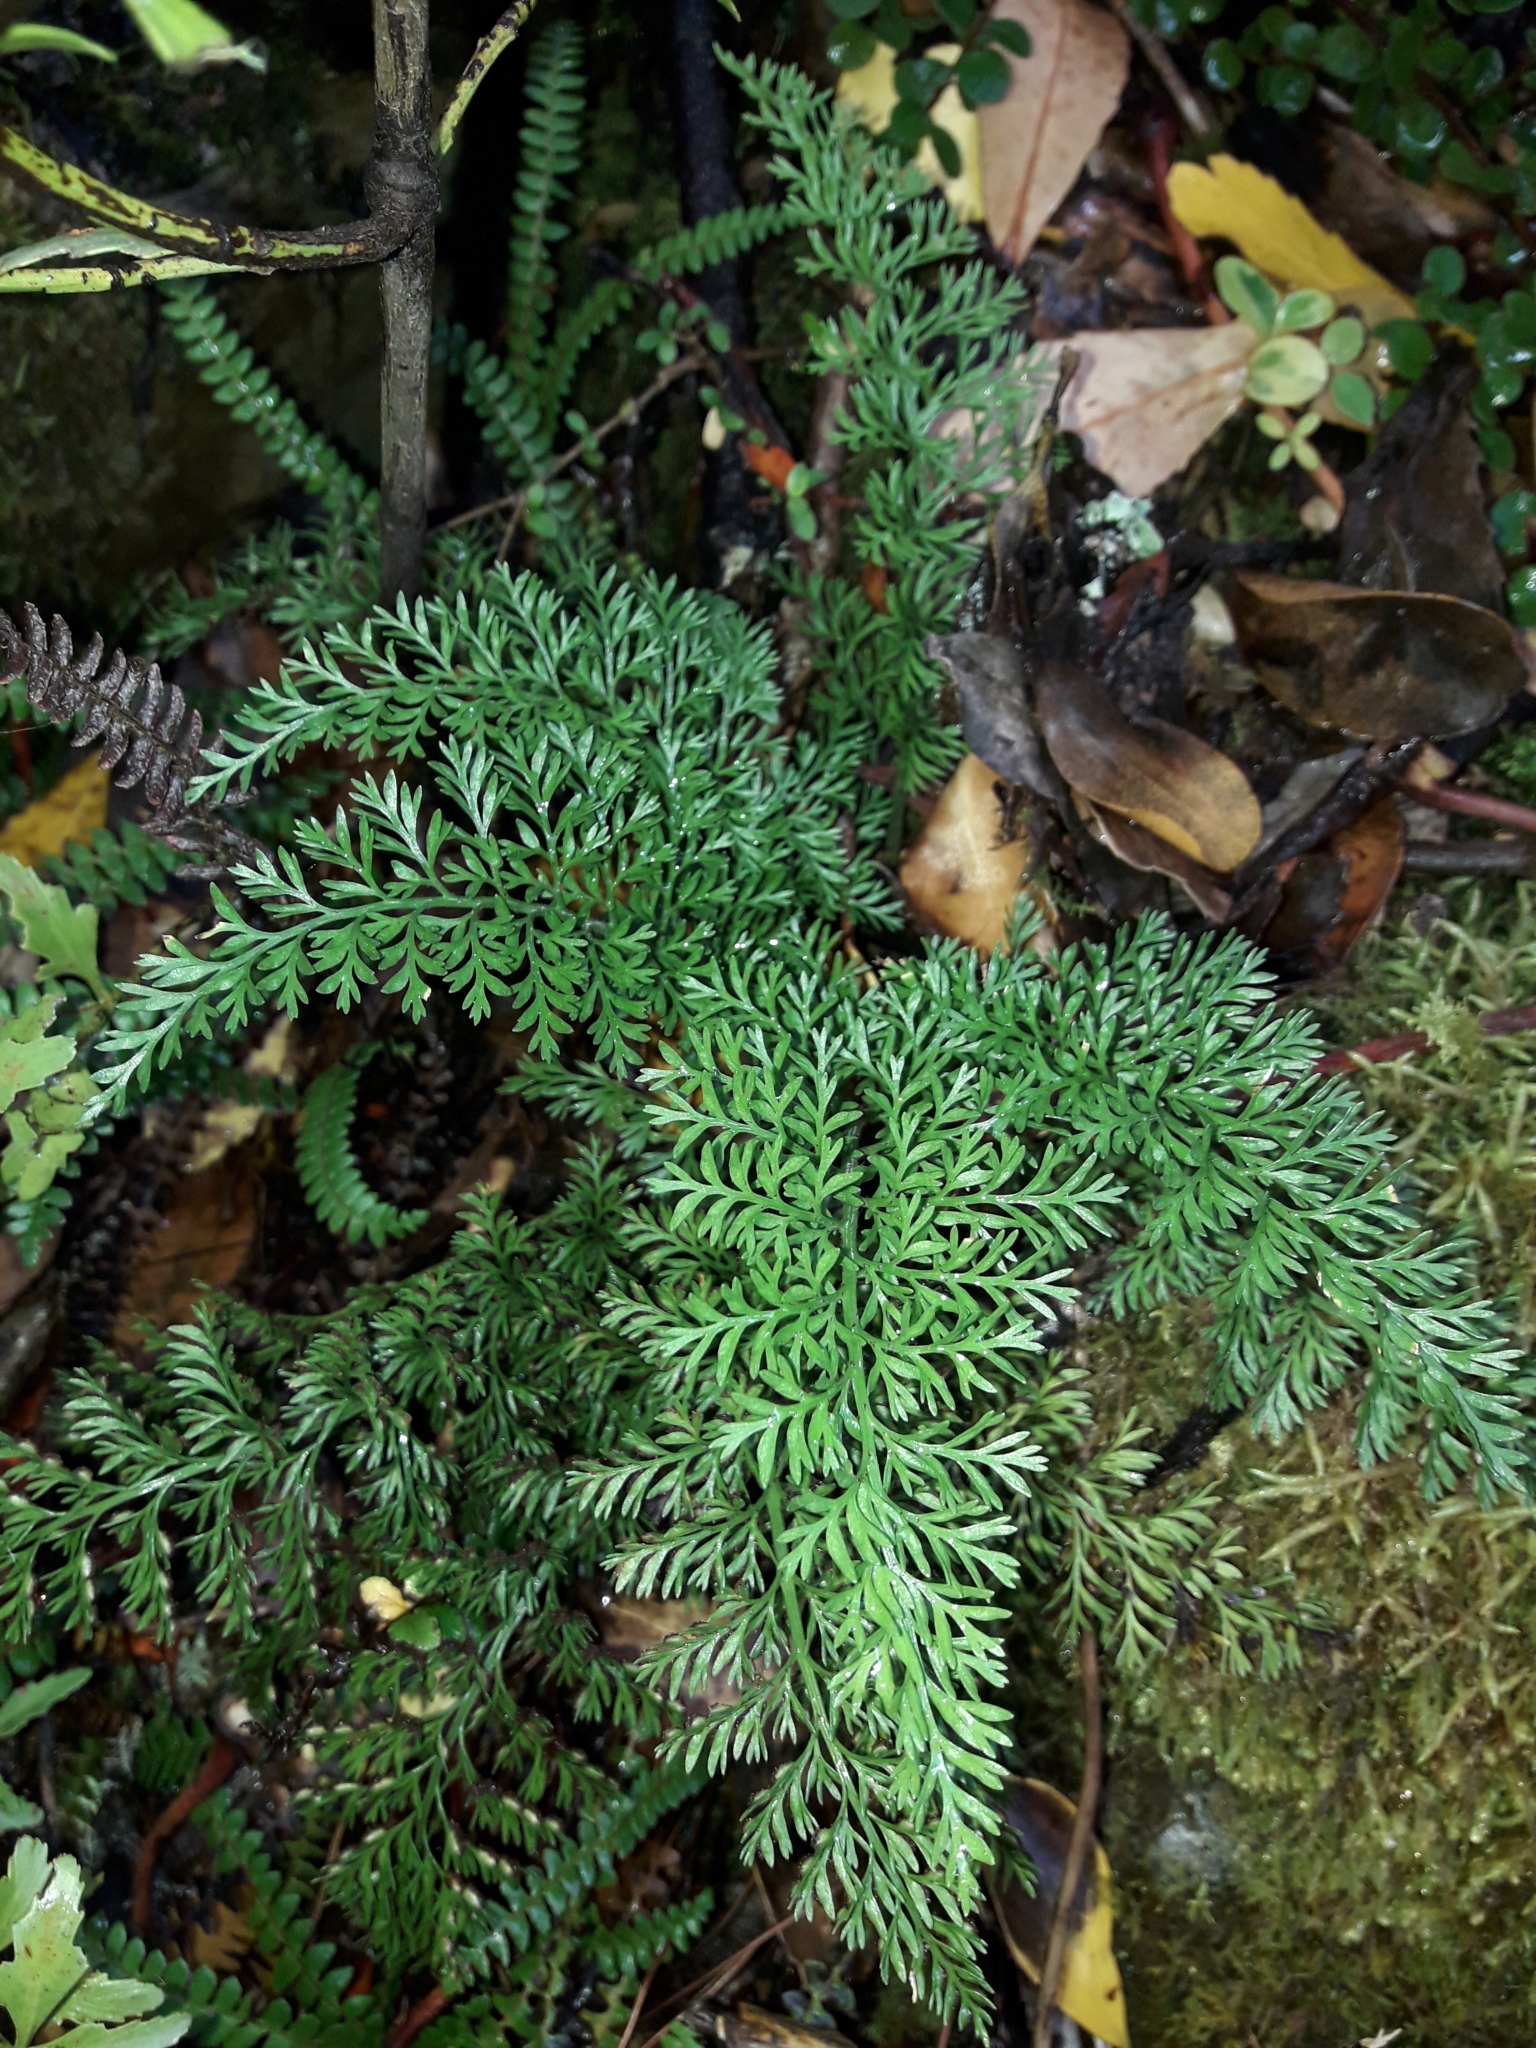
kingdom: Plantae
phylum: Tracheophyta
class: Polypodiopsida
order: Polypodiales
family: Aspleniaceae
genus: Asplenium
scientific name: Asplenium richardii
